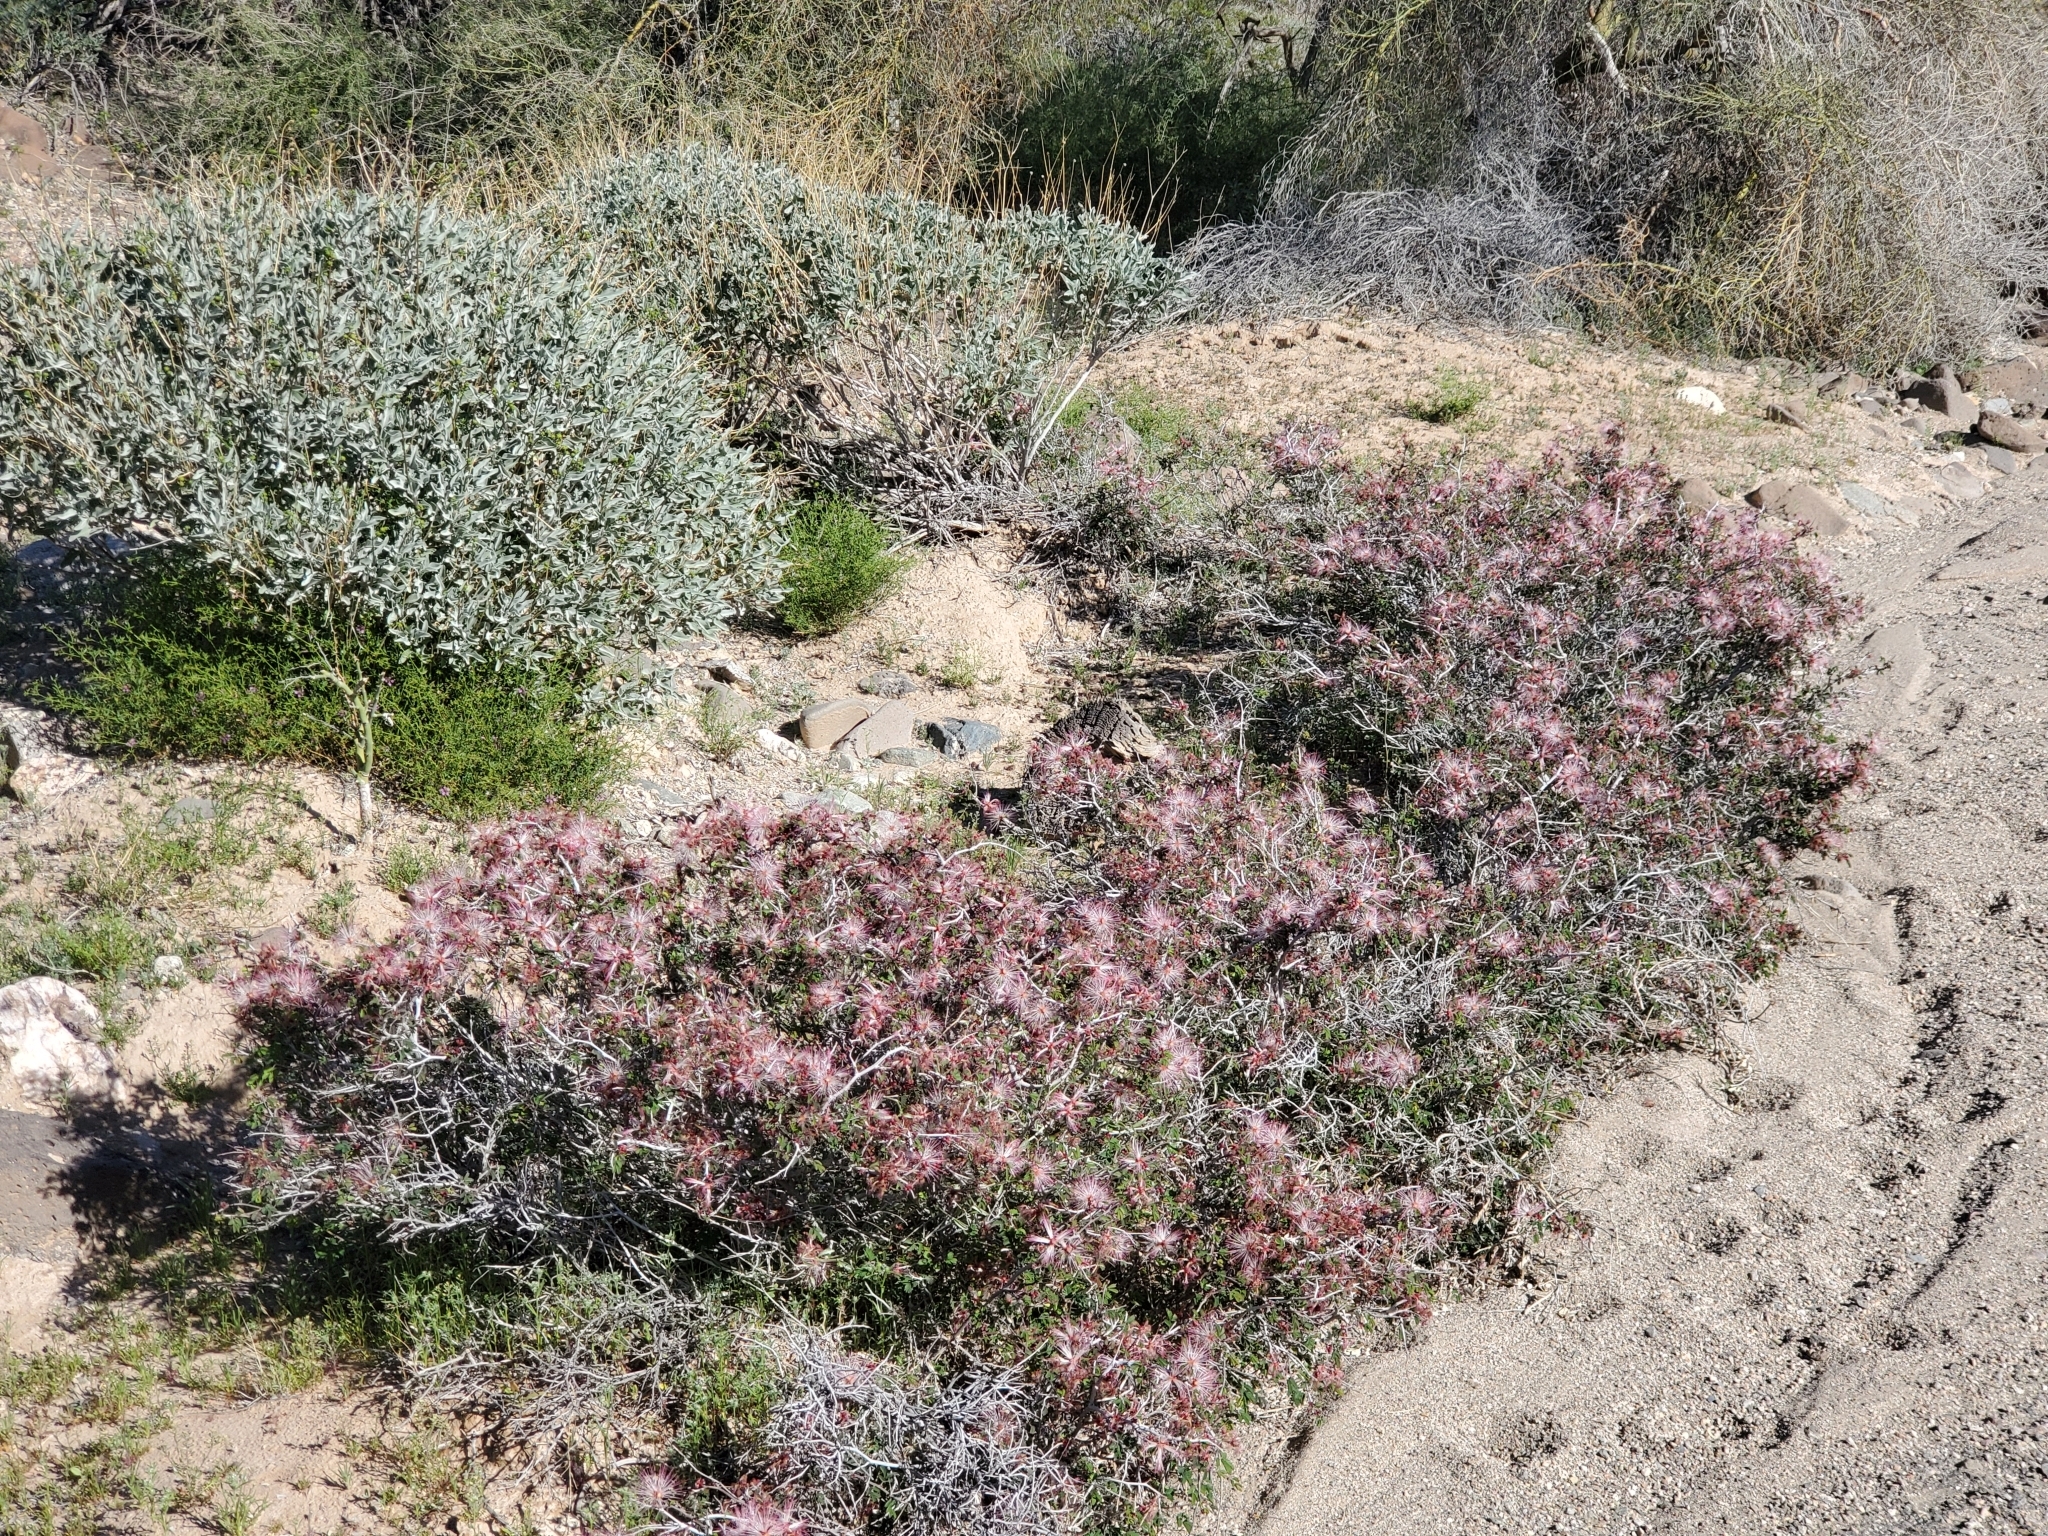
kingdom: Plantae
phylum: Tracheophyta
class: Magnoliopsida
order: Fabales
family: Fabaceae
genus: Calliandra
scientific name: Calliandra eriophylla
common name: Fairy-duster
